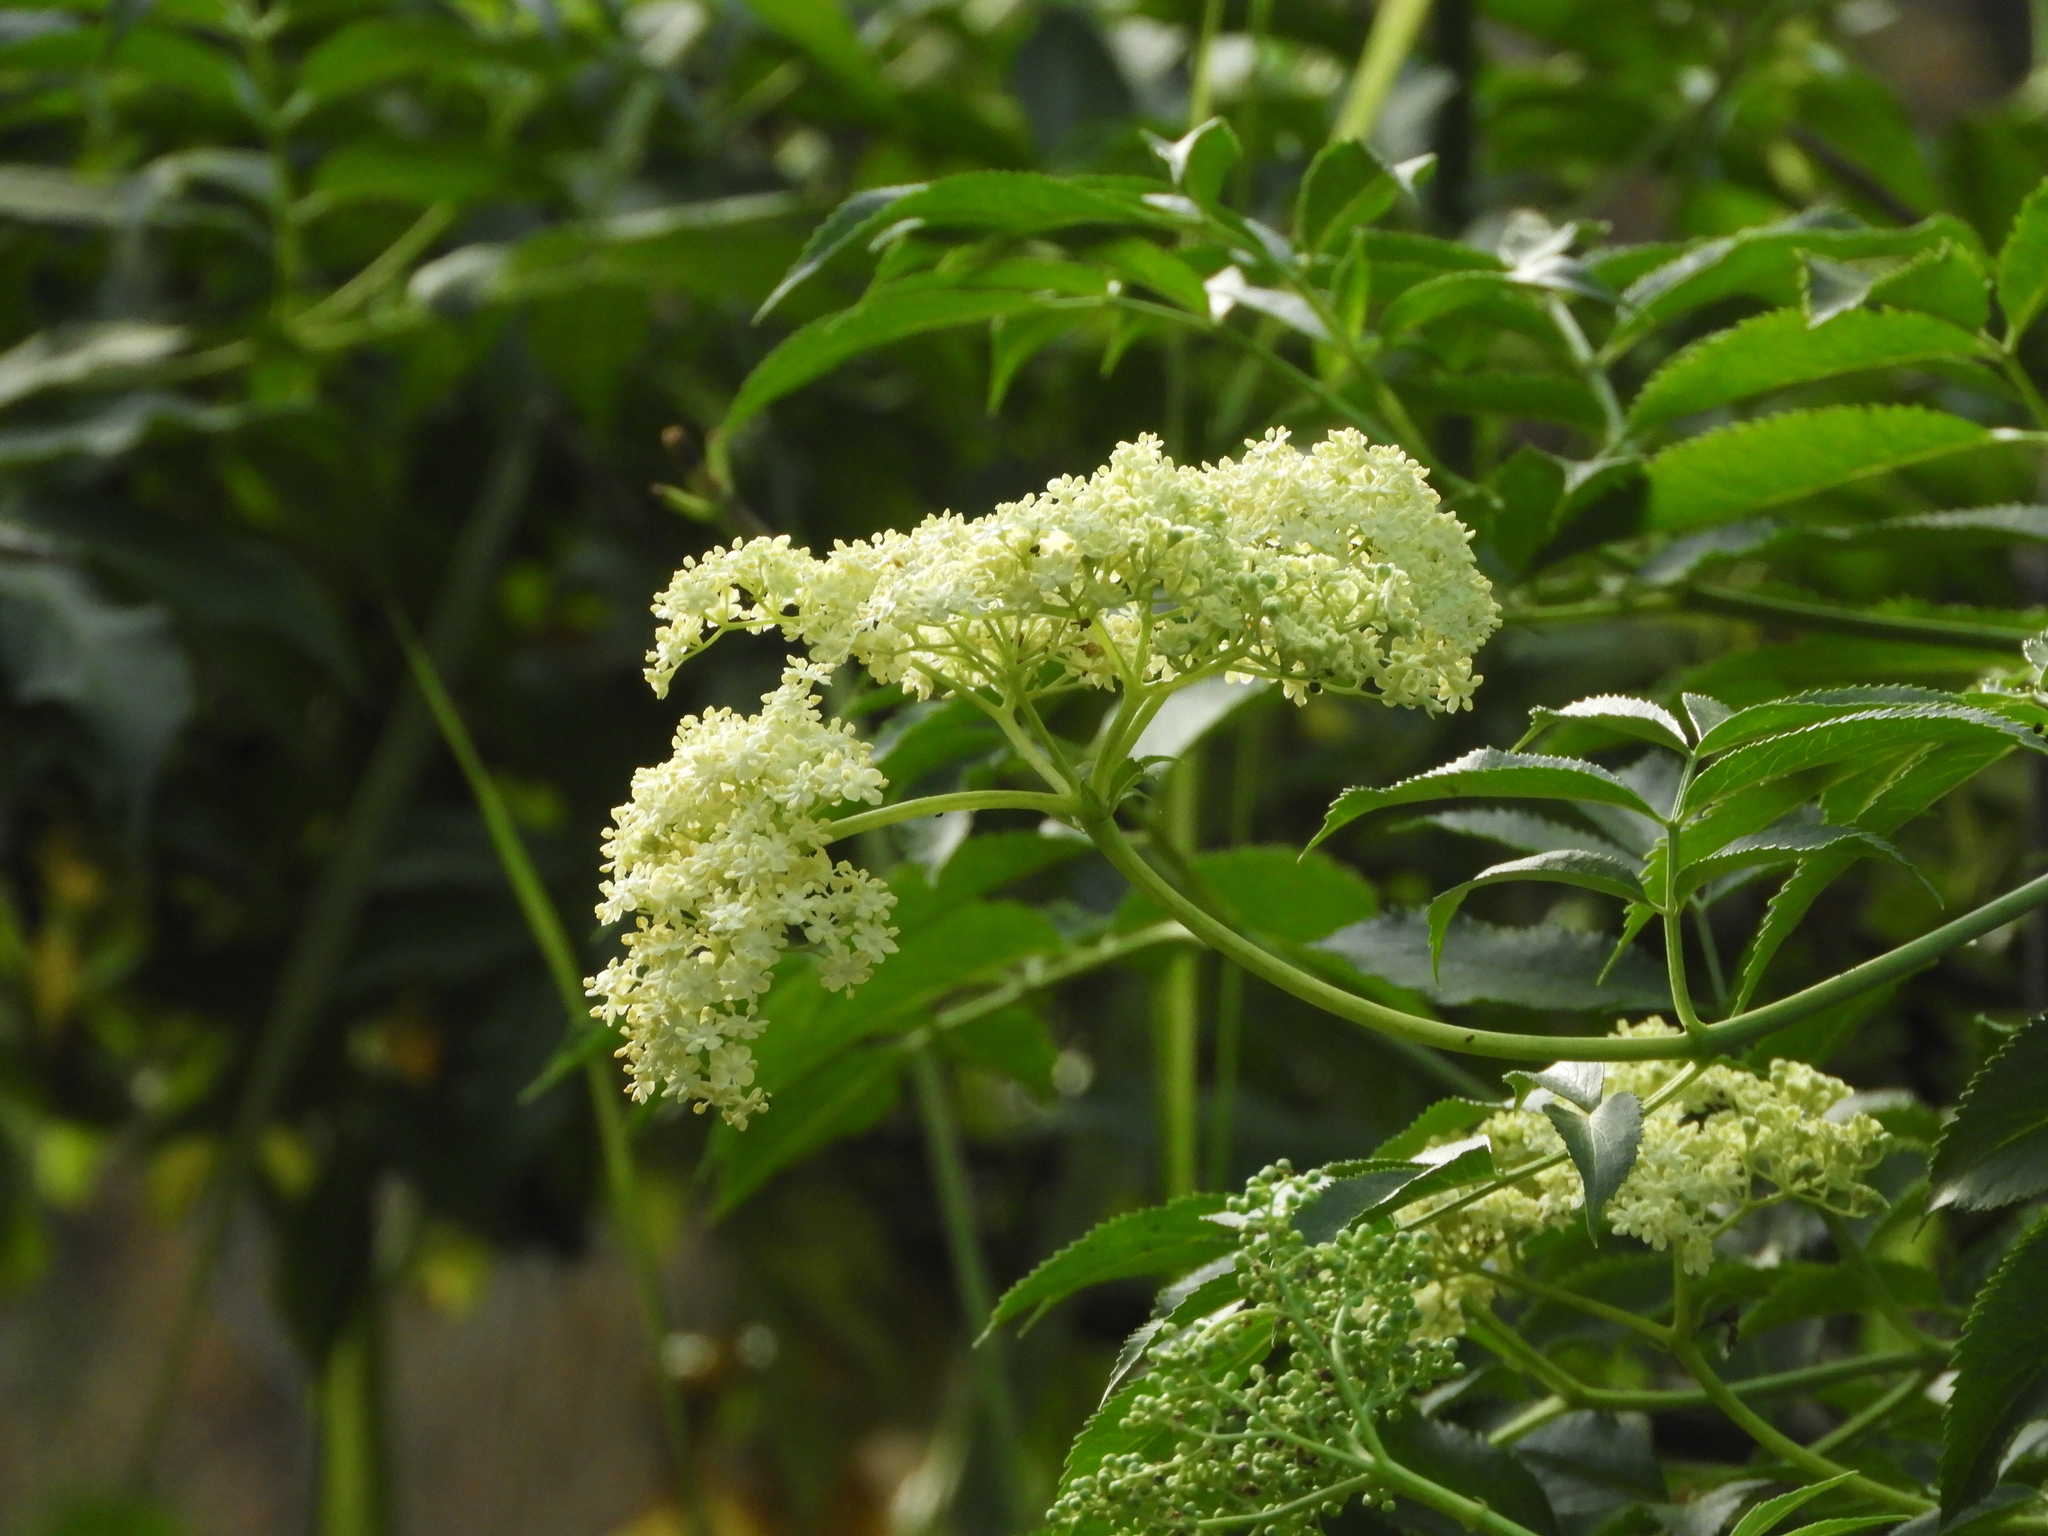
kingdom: Plantae
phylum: Tracheophyta
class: Magnoliopsida
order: Dipsacales
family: Viburnaceae
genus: Sambucus
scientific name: Sambucus cerulea
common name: Blue elder
